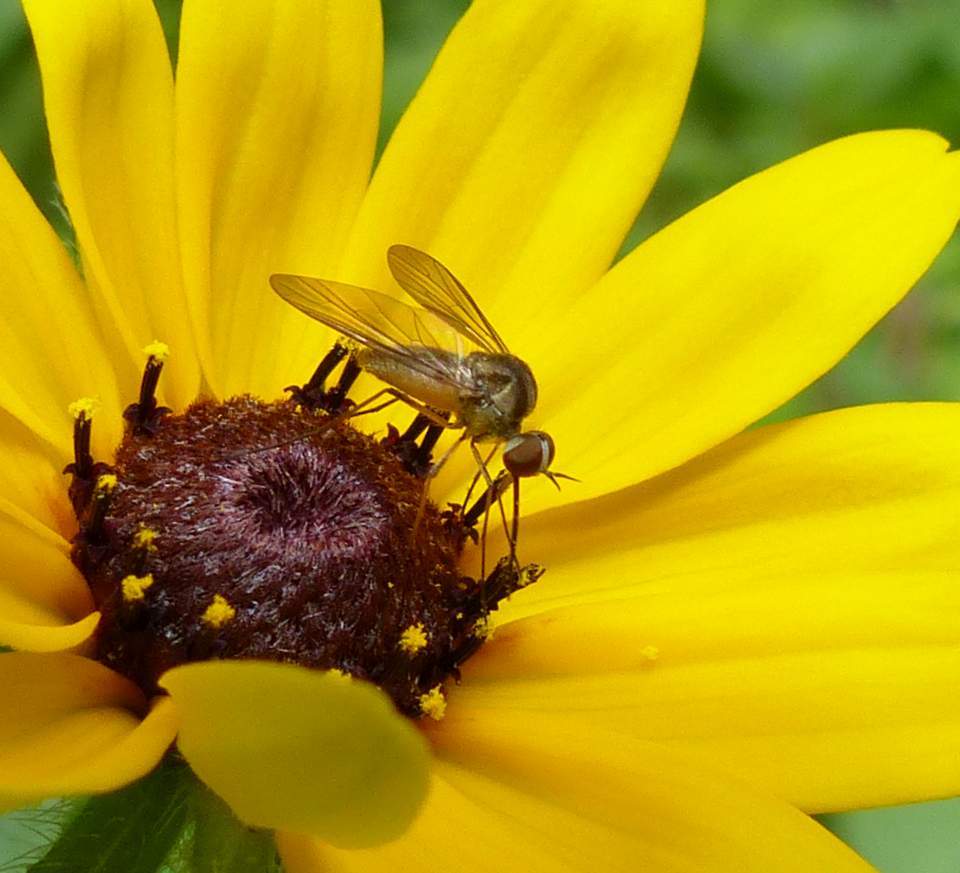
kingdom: Animalia
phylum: Arthropoda
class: Insecta
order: Diptera
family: Bombyliidae
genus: Geron
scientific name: Geron calvus
